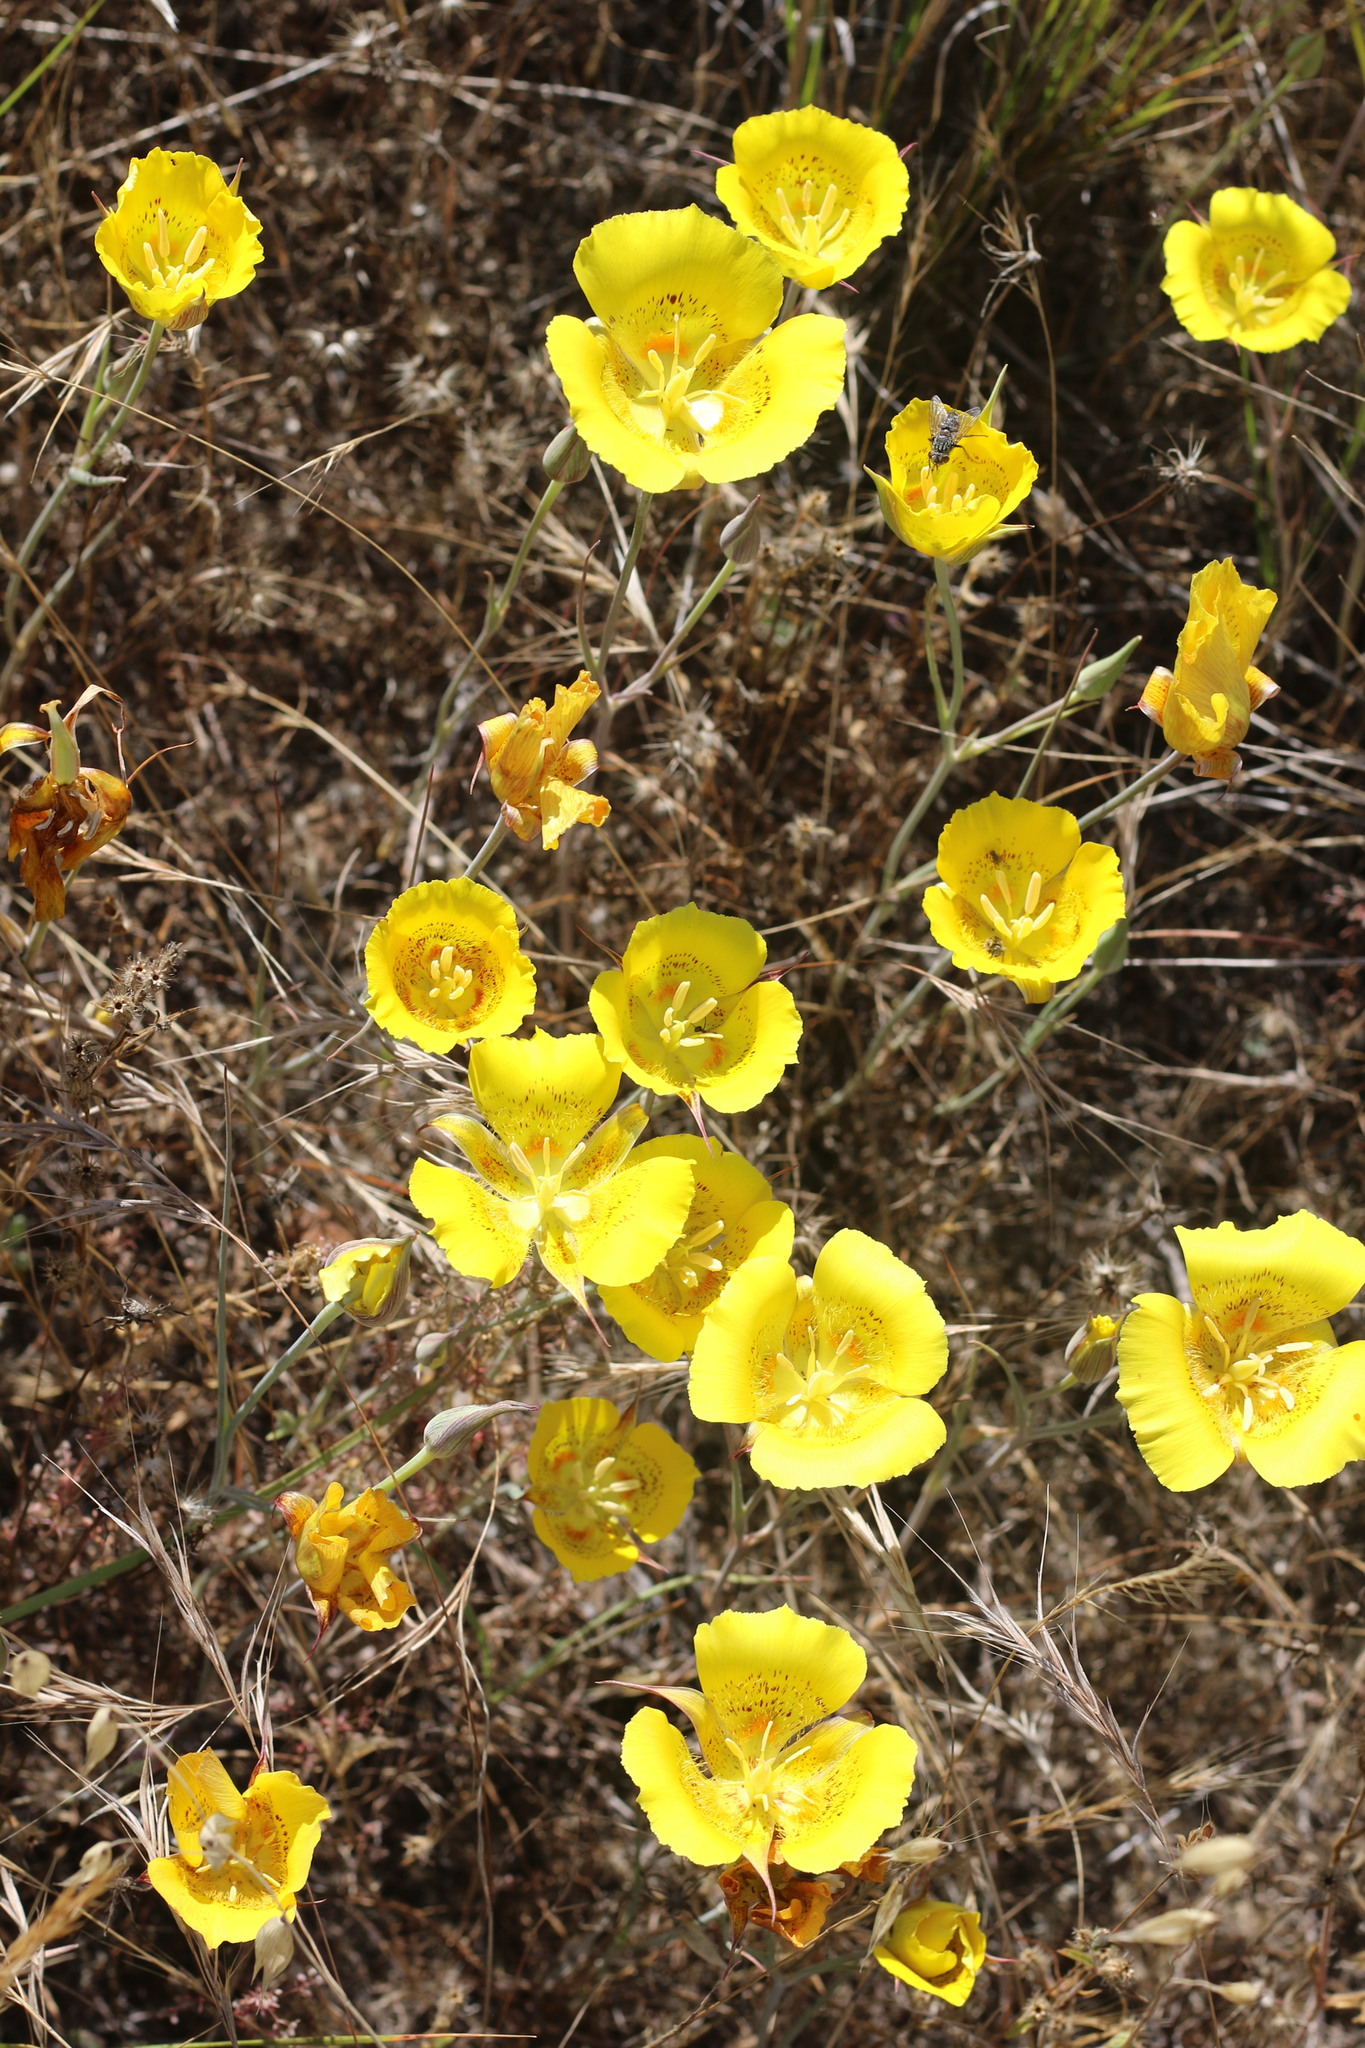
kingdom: Plantae
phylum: Tracheophyta
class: Liliopsida
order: Liliales
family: Liliaceae
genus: Calochortus
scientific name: Calochortus luteus
